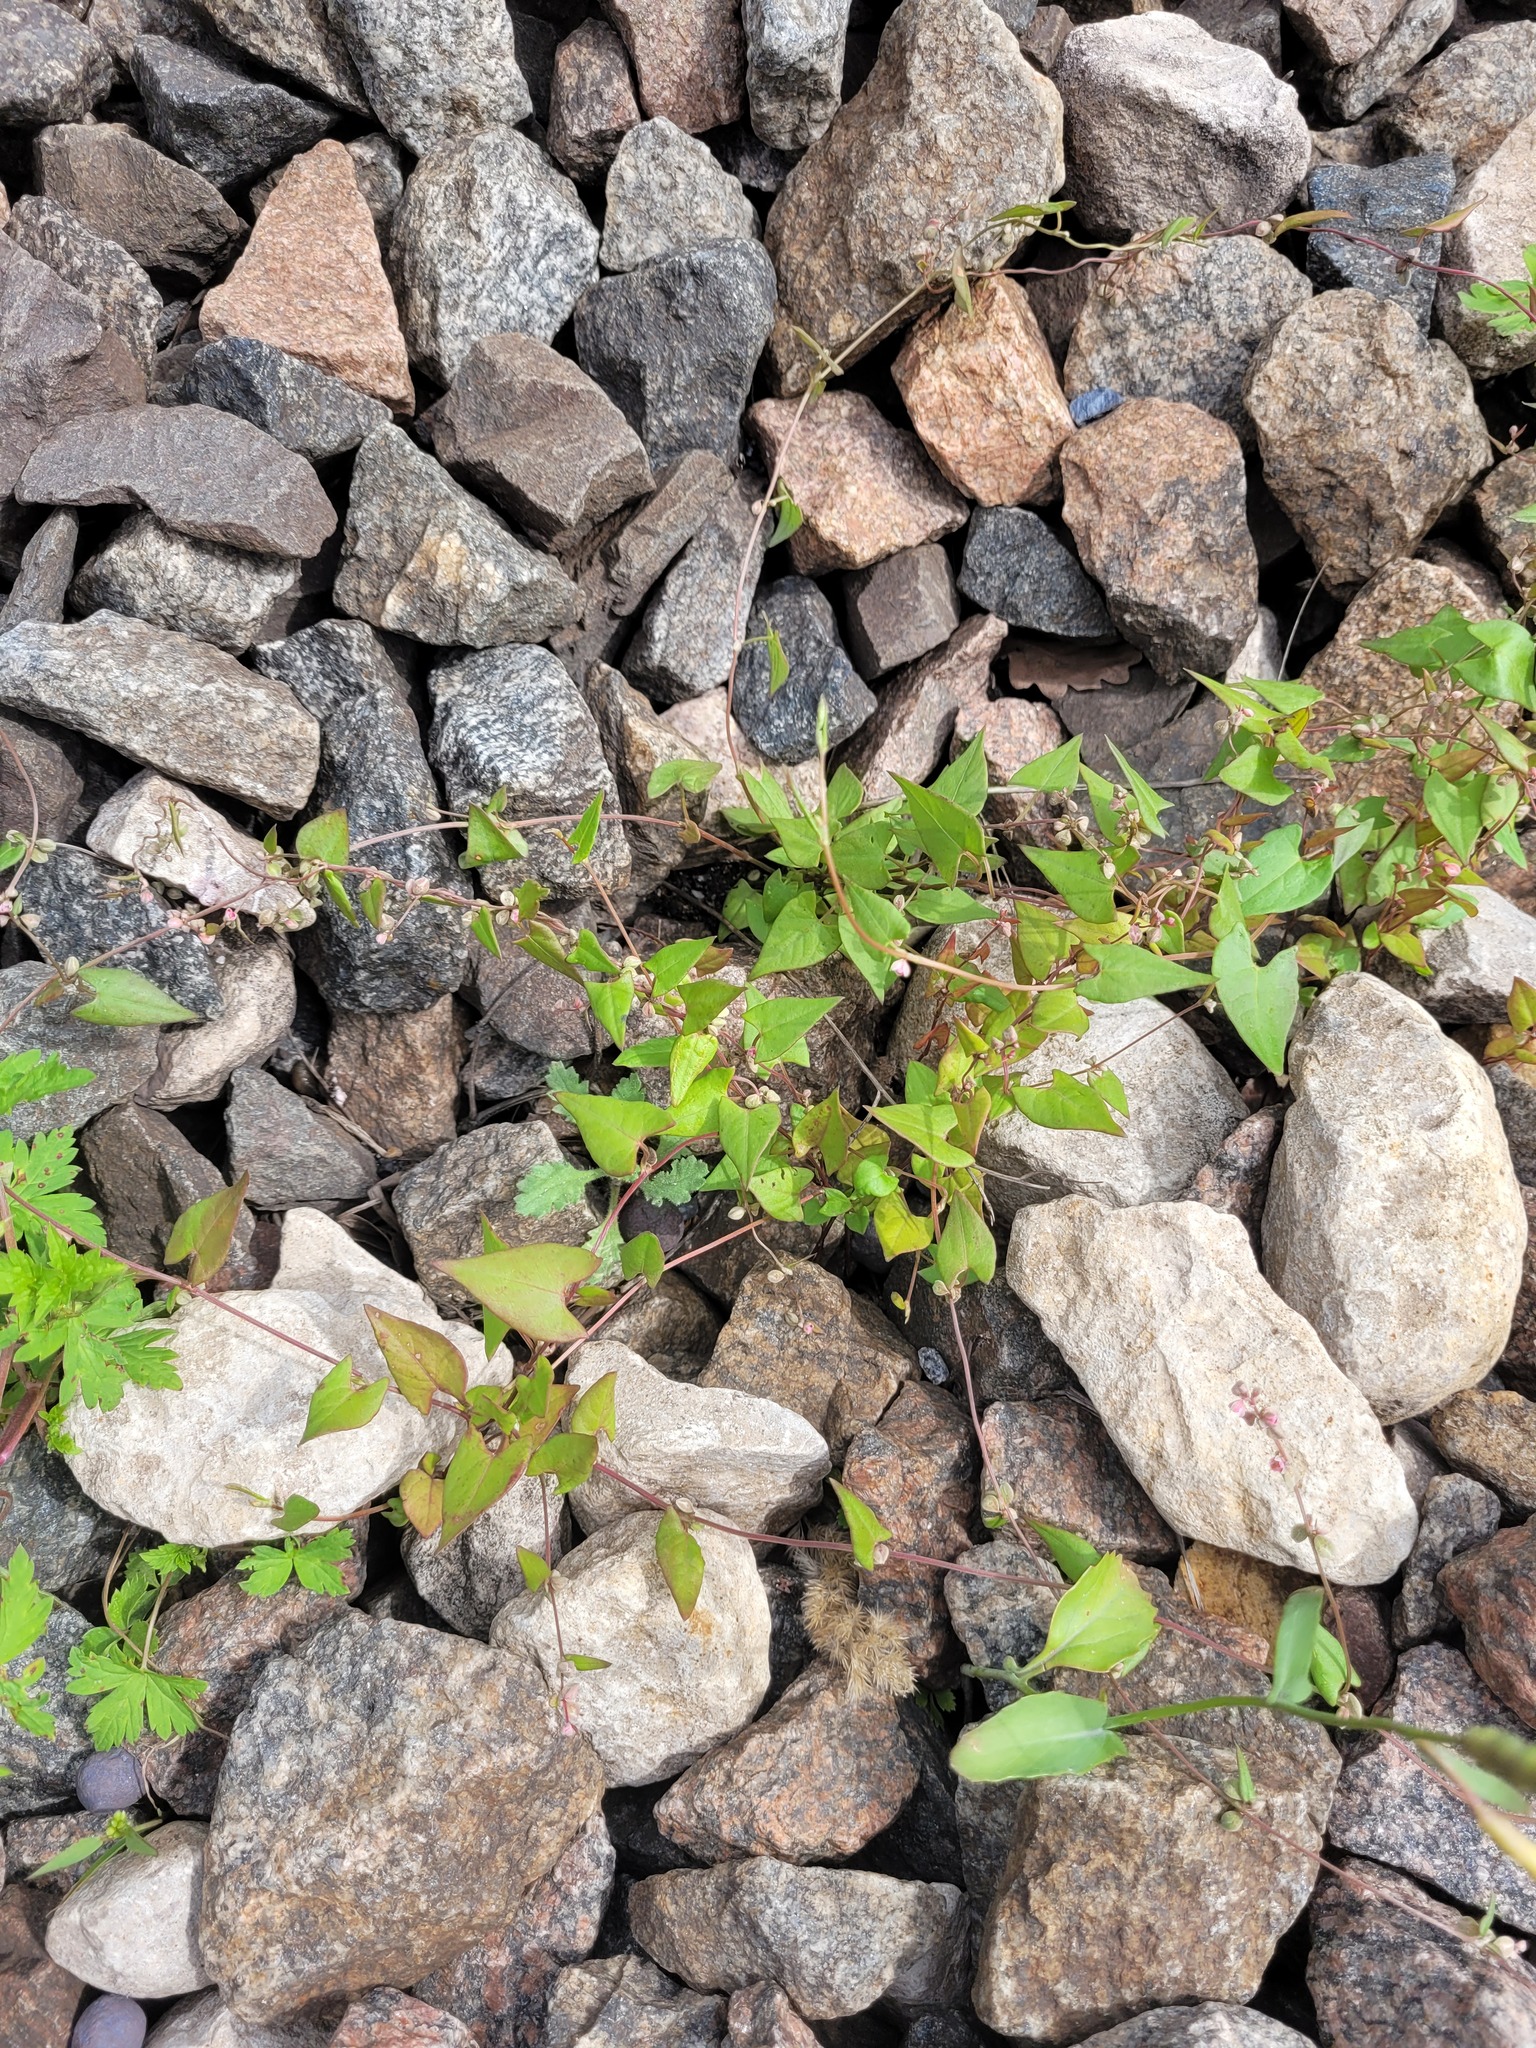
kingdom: Plantae
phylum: Tracheophyta
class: Magnoliopsida
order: Caryophyllales
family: Polygonaceae
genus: Fallopia
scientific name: Fallopia convolvulus
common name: Black bindweed
